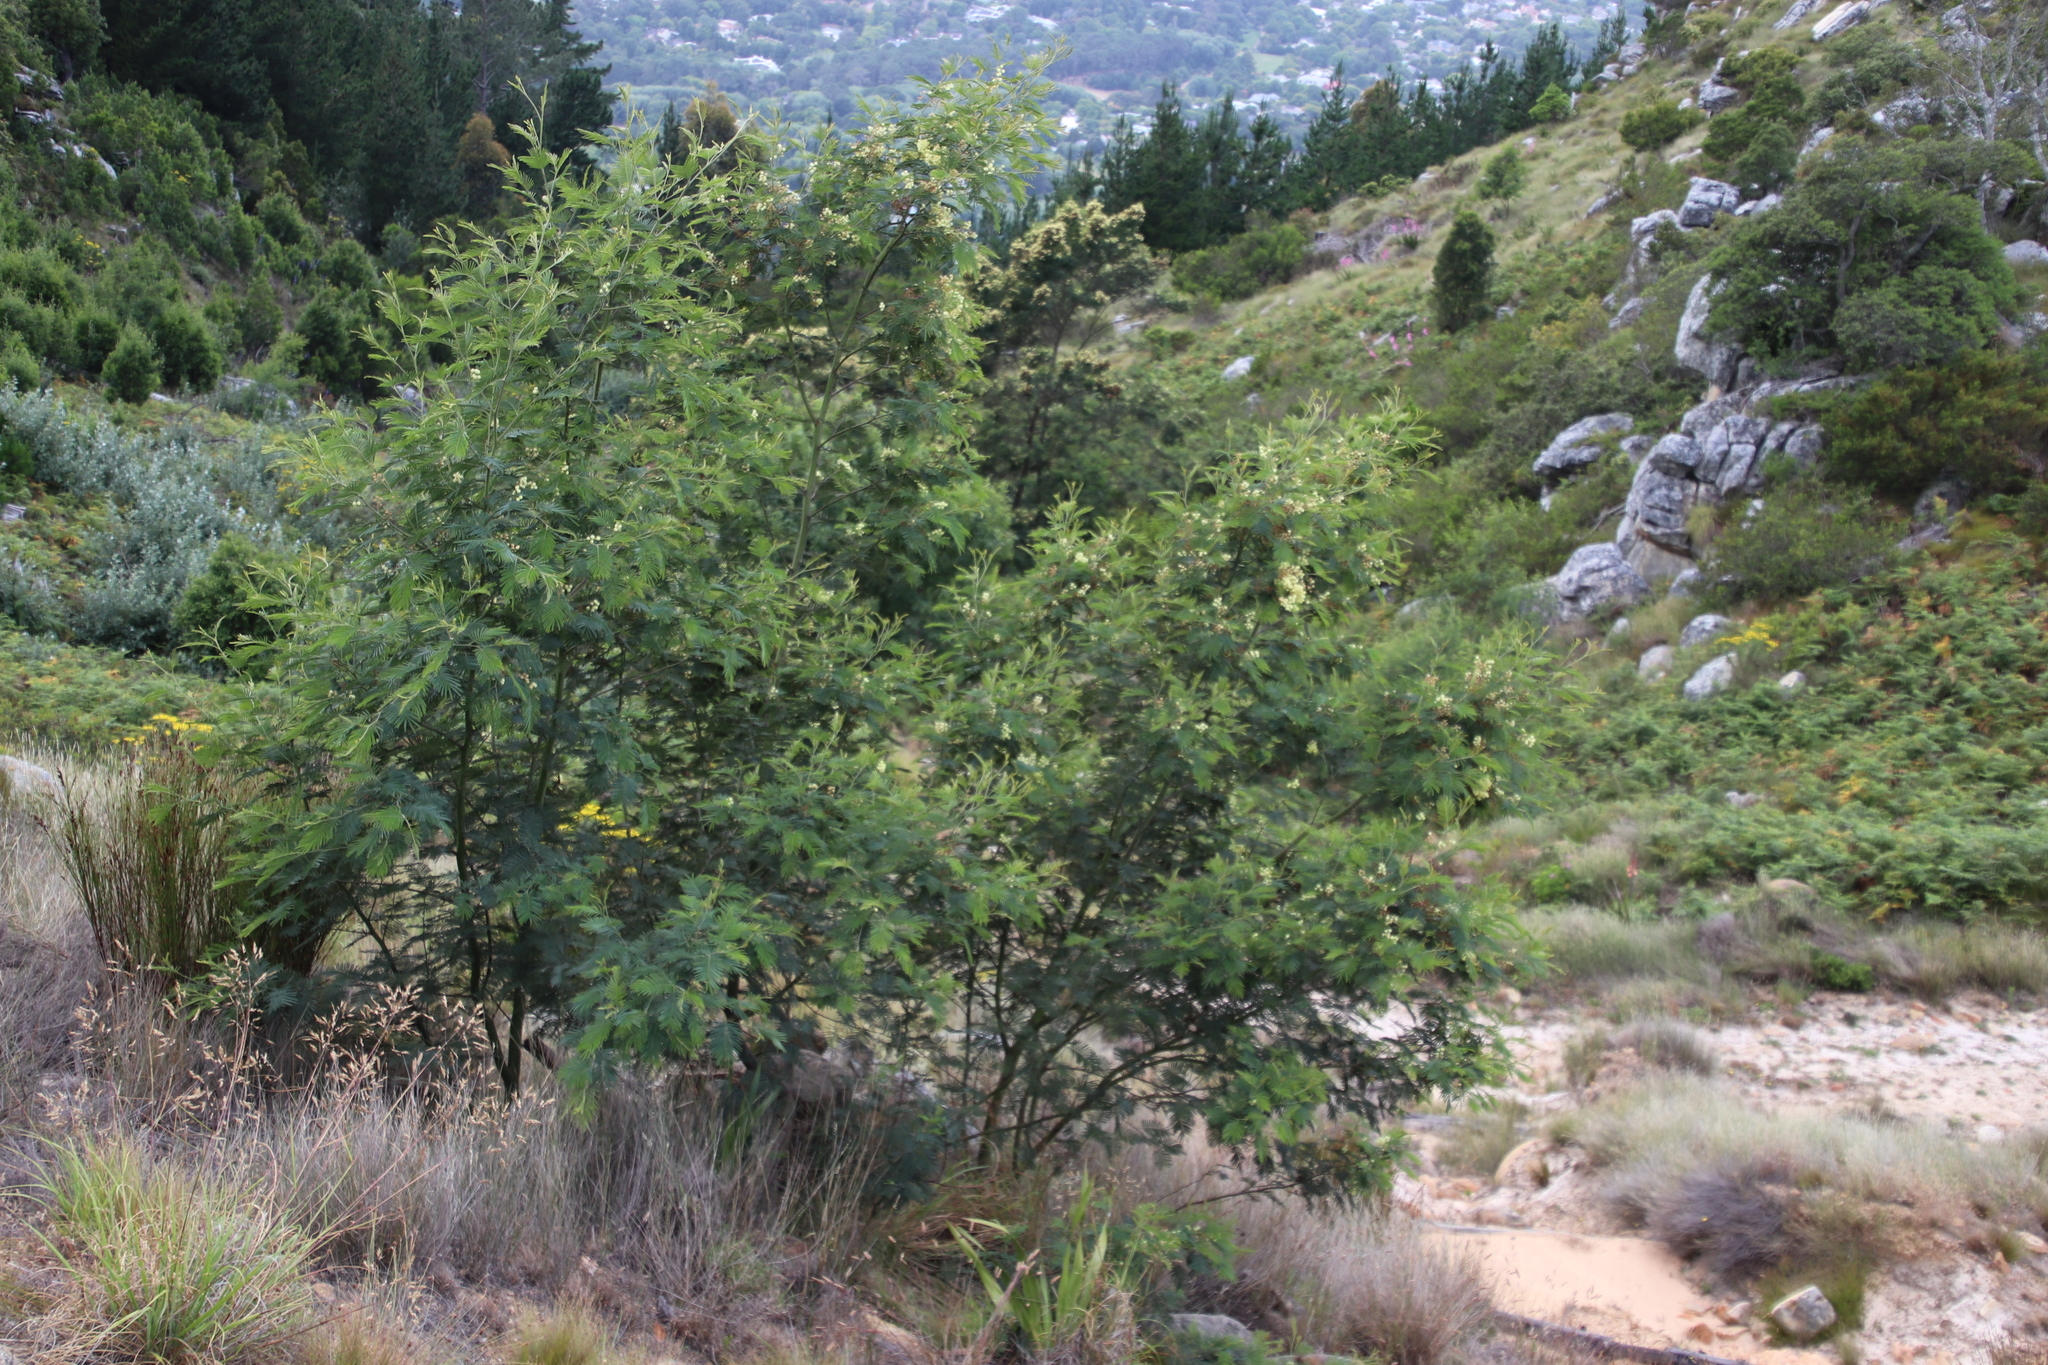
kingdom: Plantae
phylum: Tracheophyta
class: Magnoliopsida
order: Fabales
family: Fabaceae
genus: Acacia
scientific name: Acacia mearnsii
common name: Black wattle
